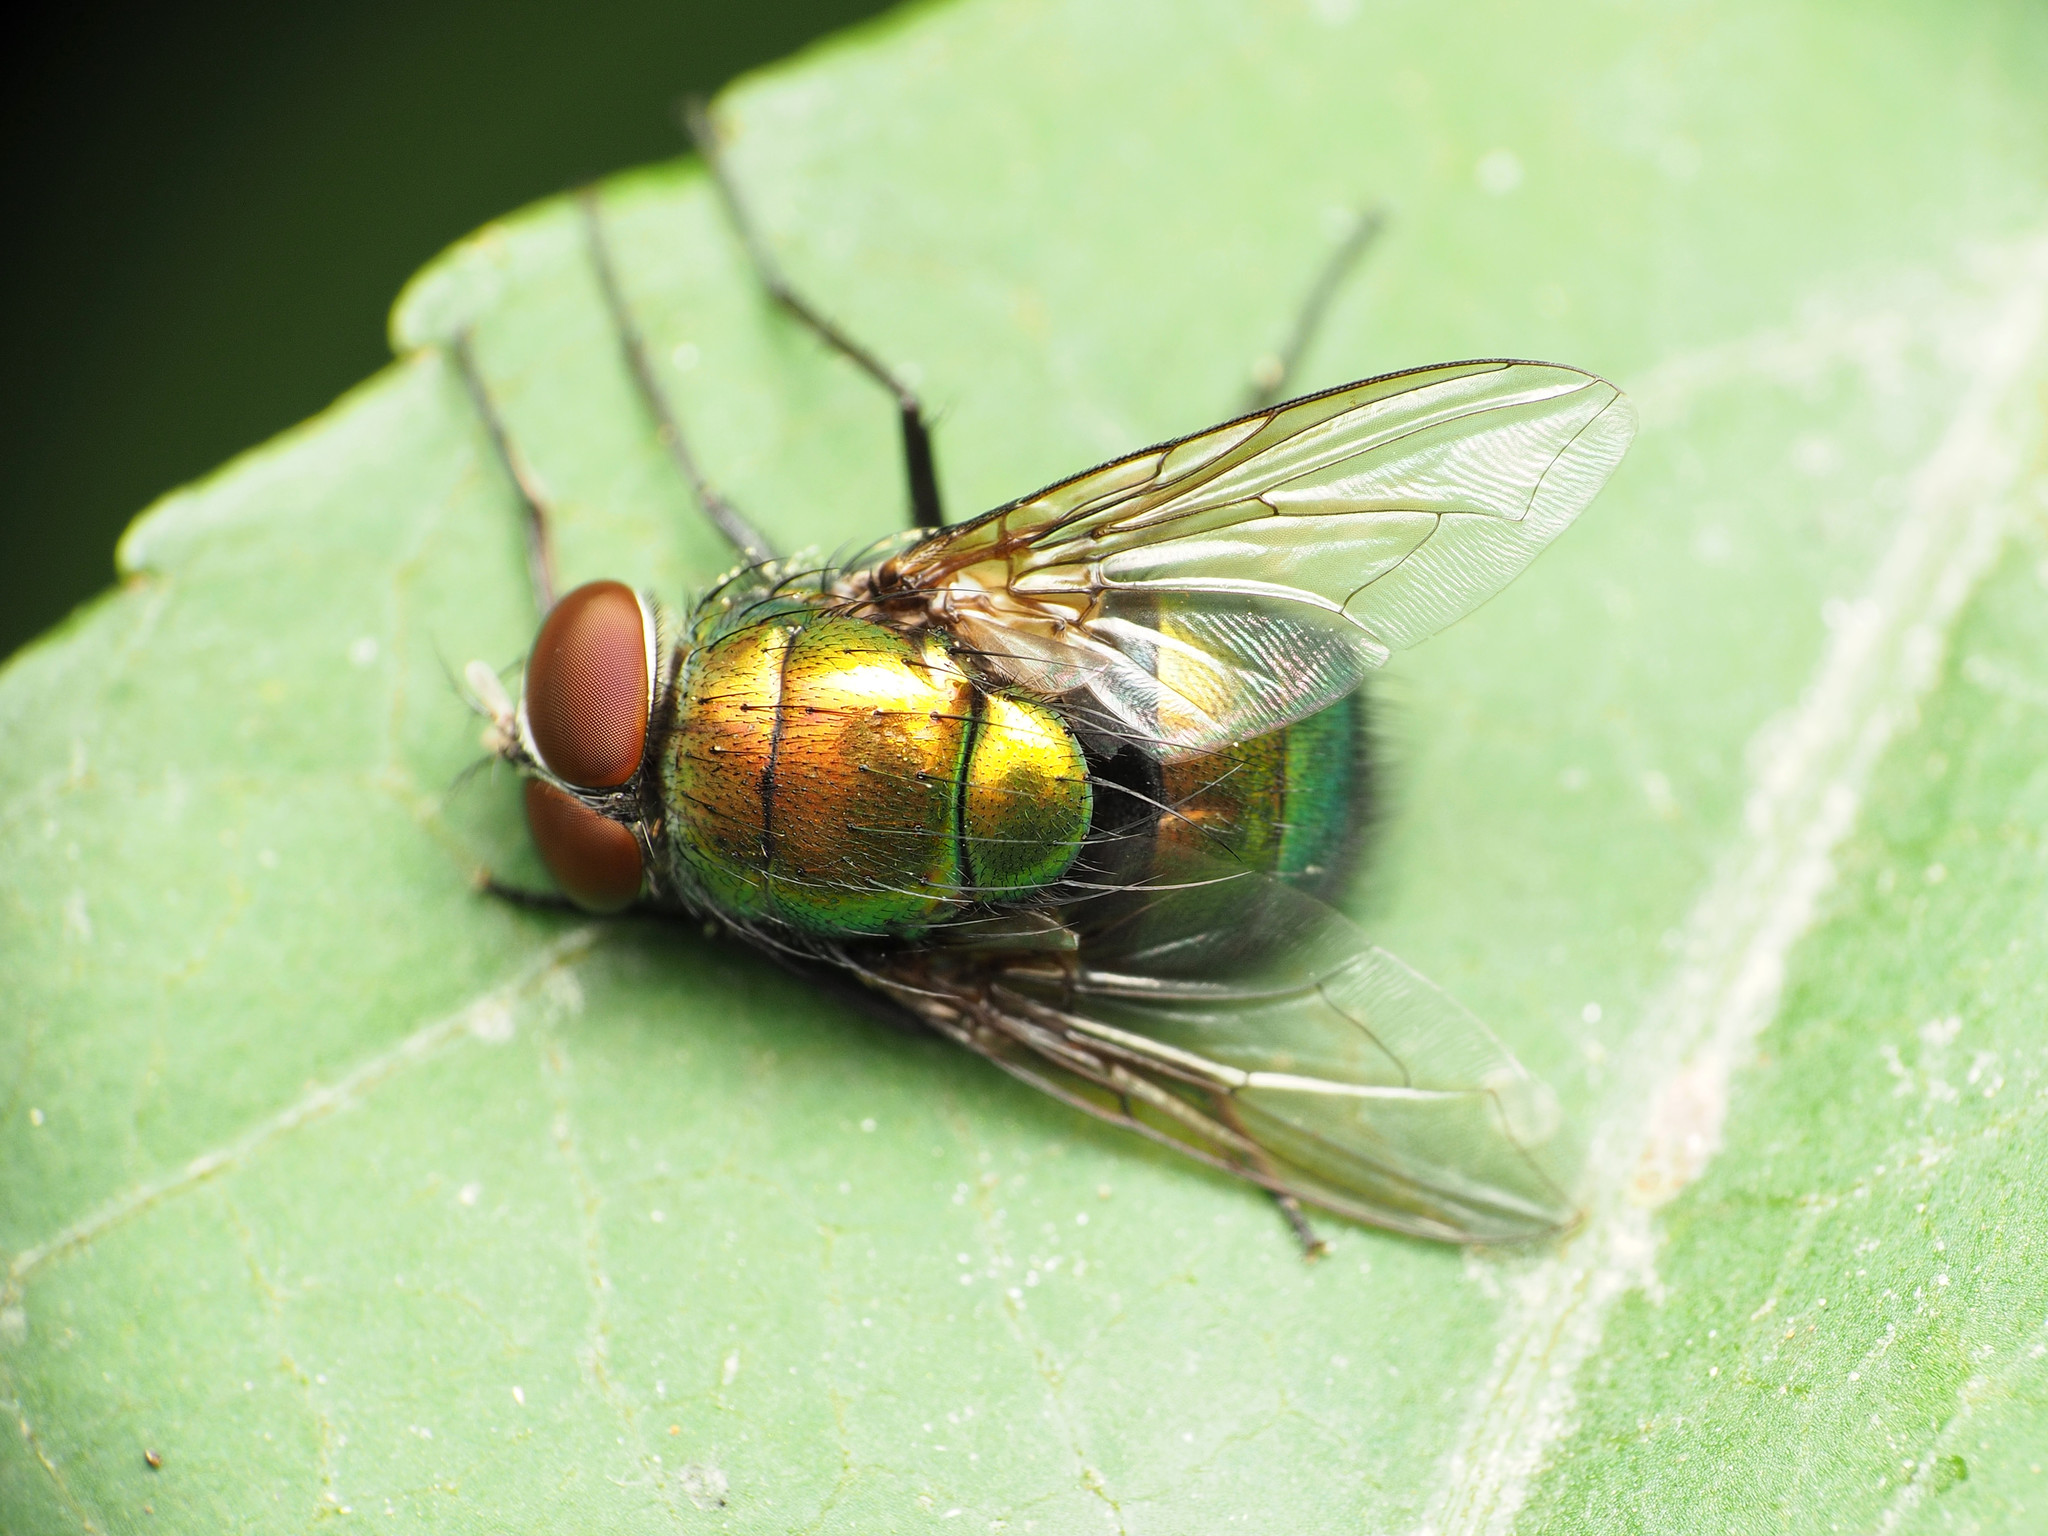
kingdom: Animalia
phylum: Arthropoda
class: Insecta
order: Diptera
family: Calliphoridae
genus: Lucilia
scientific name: Lucilia caeruleiviridis
